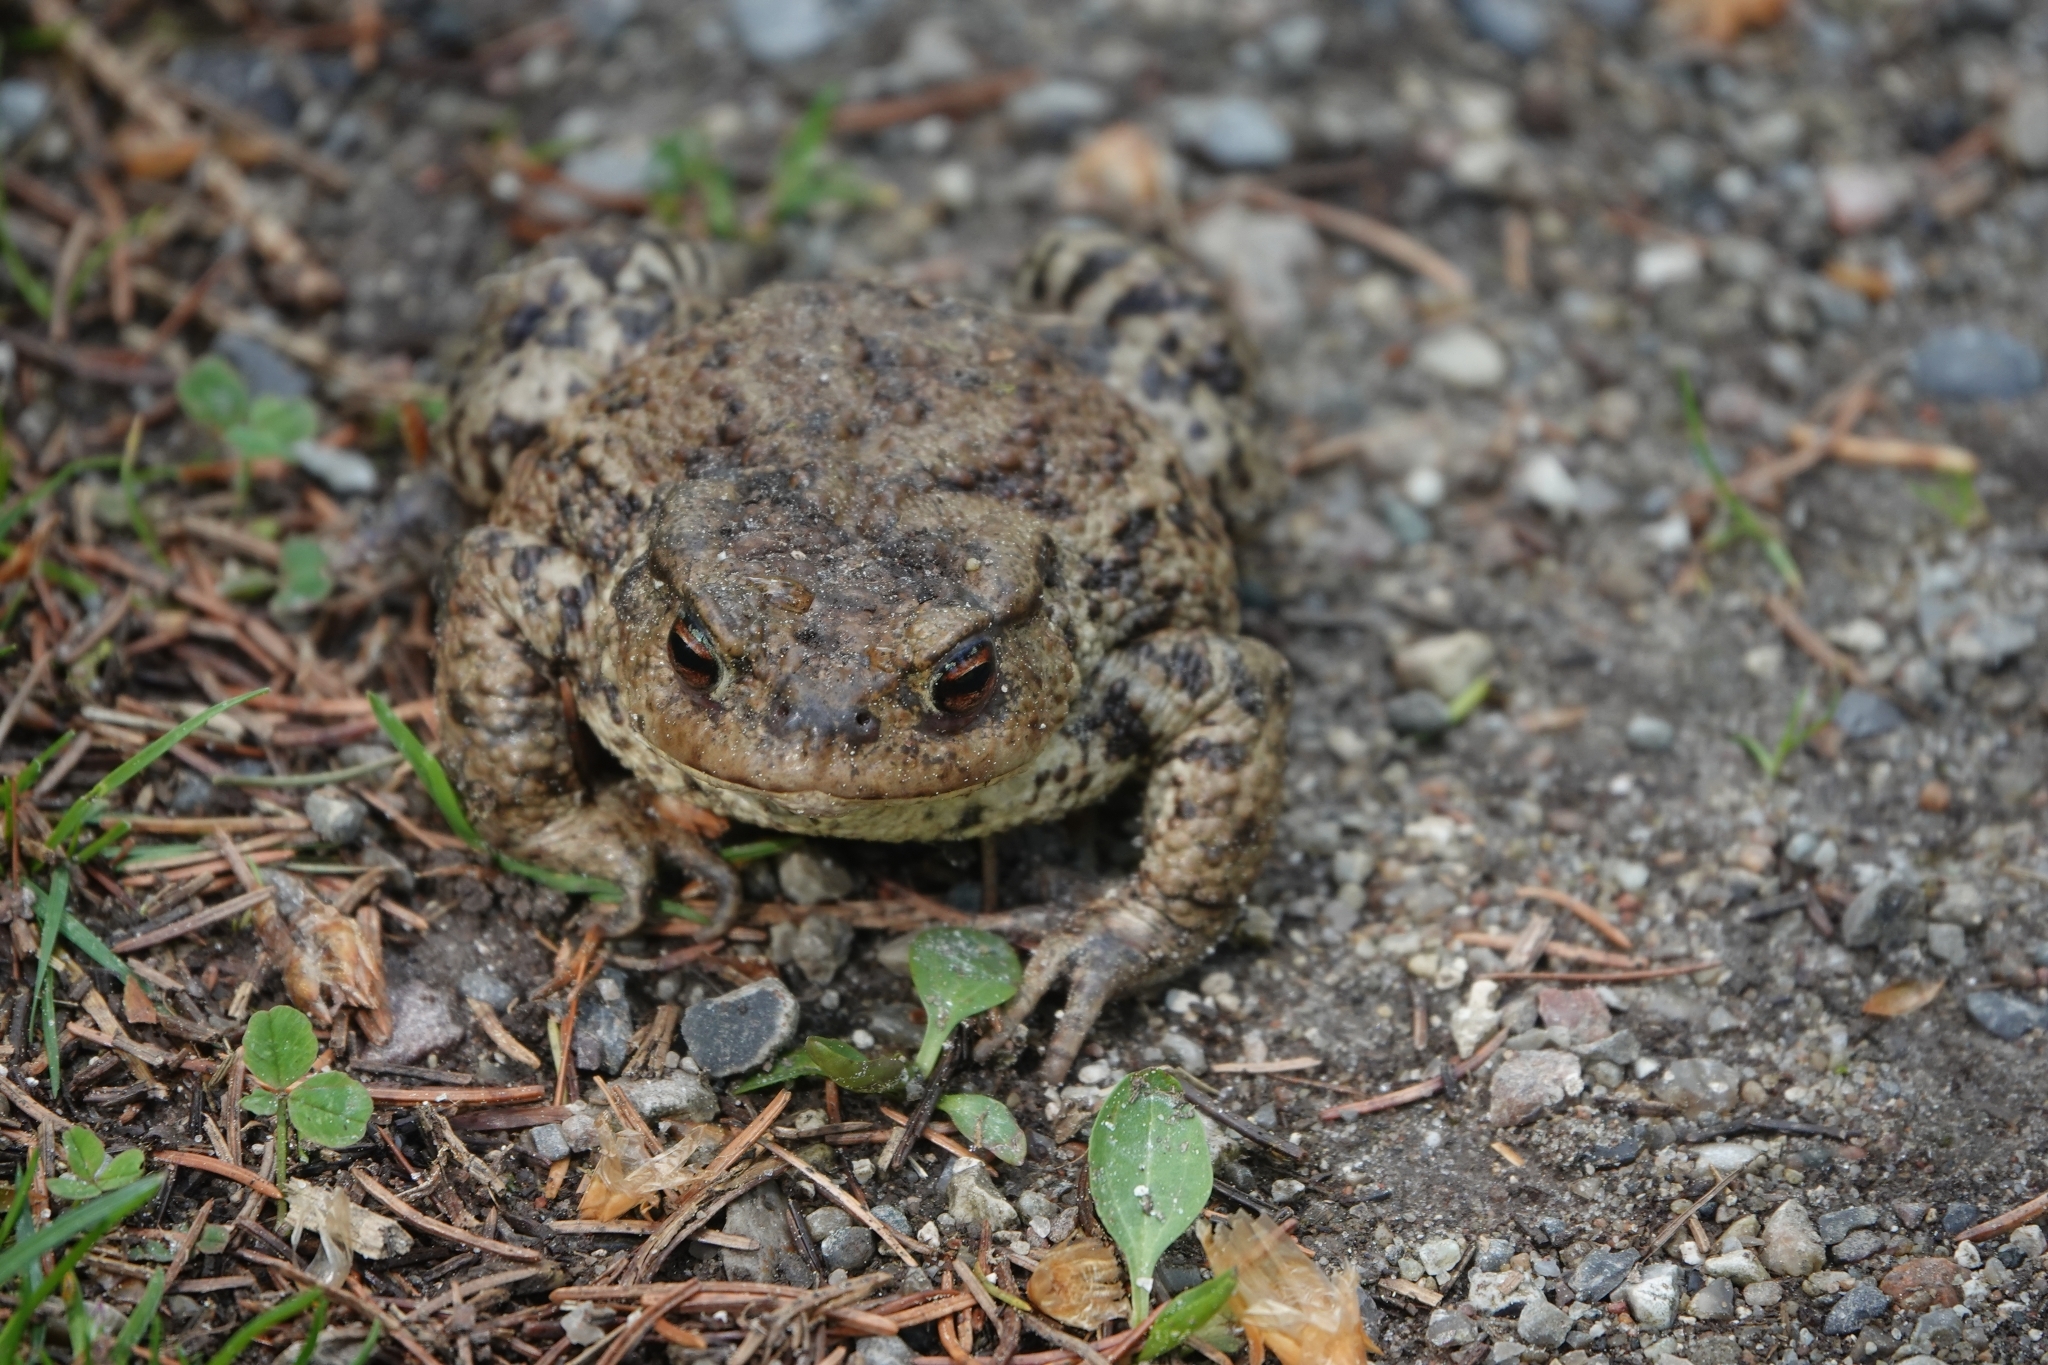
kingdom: Animalia
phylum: Chordata
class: Amphibia
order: Anura
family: Bufonidae
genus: Bufo
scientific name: Bufo bufo
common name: Common toad
